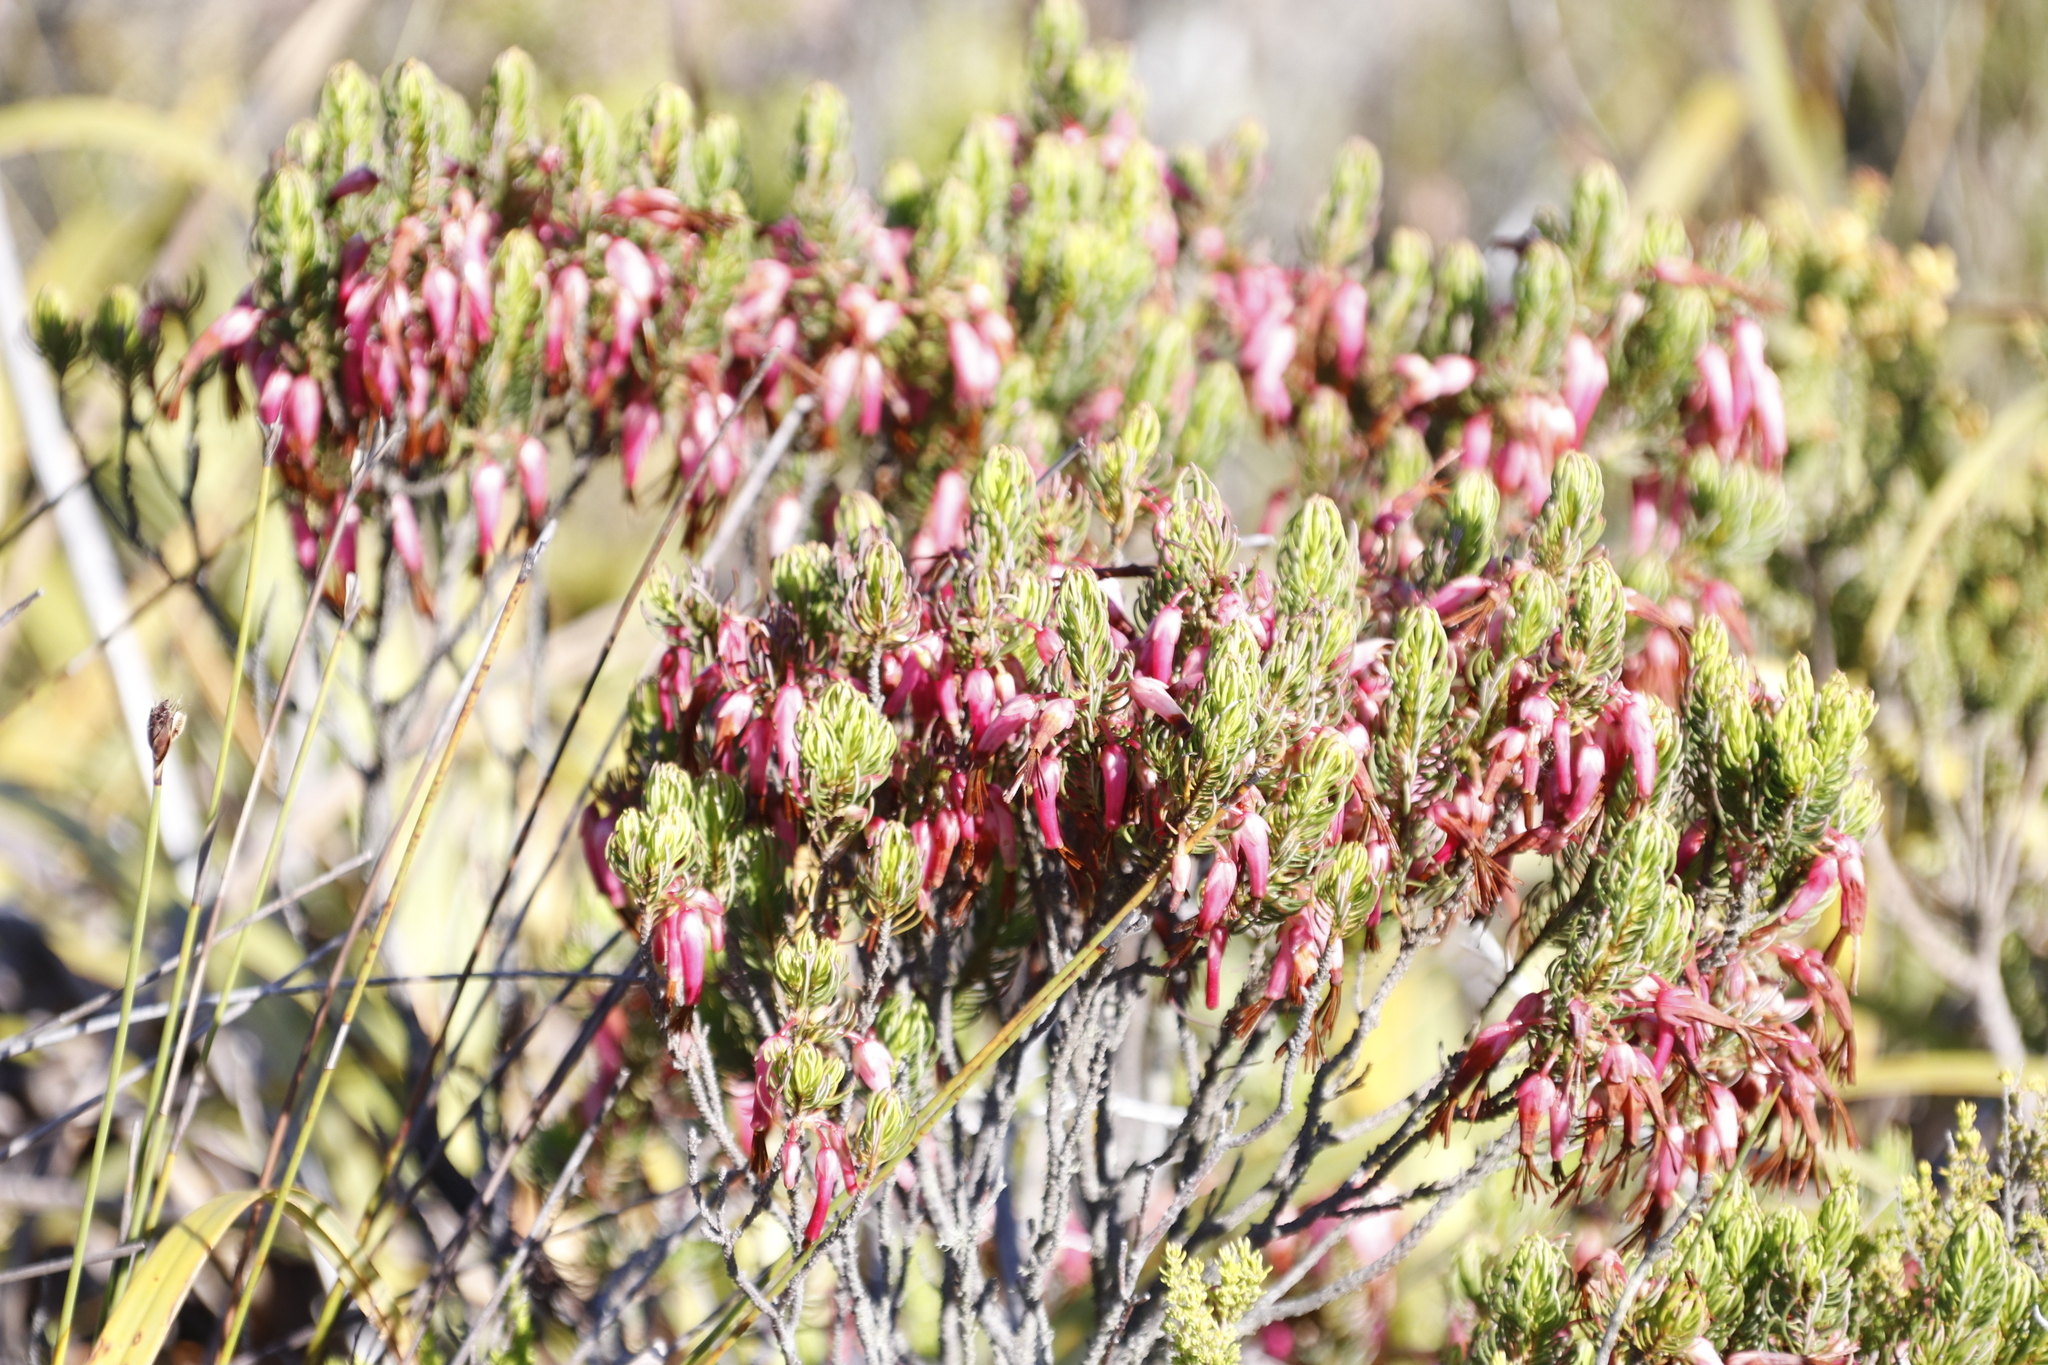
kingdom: Plantae
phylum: Tracheophyta
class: Magnoliopsida
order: Ericales
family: Ericaceae
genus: Erica
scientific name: Erica plukenetii
